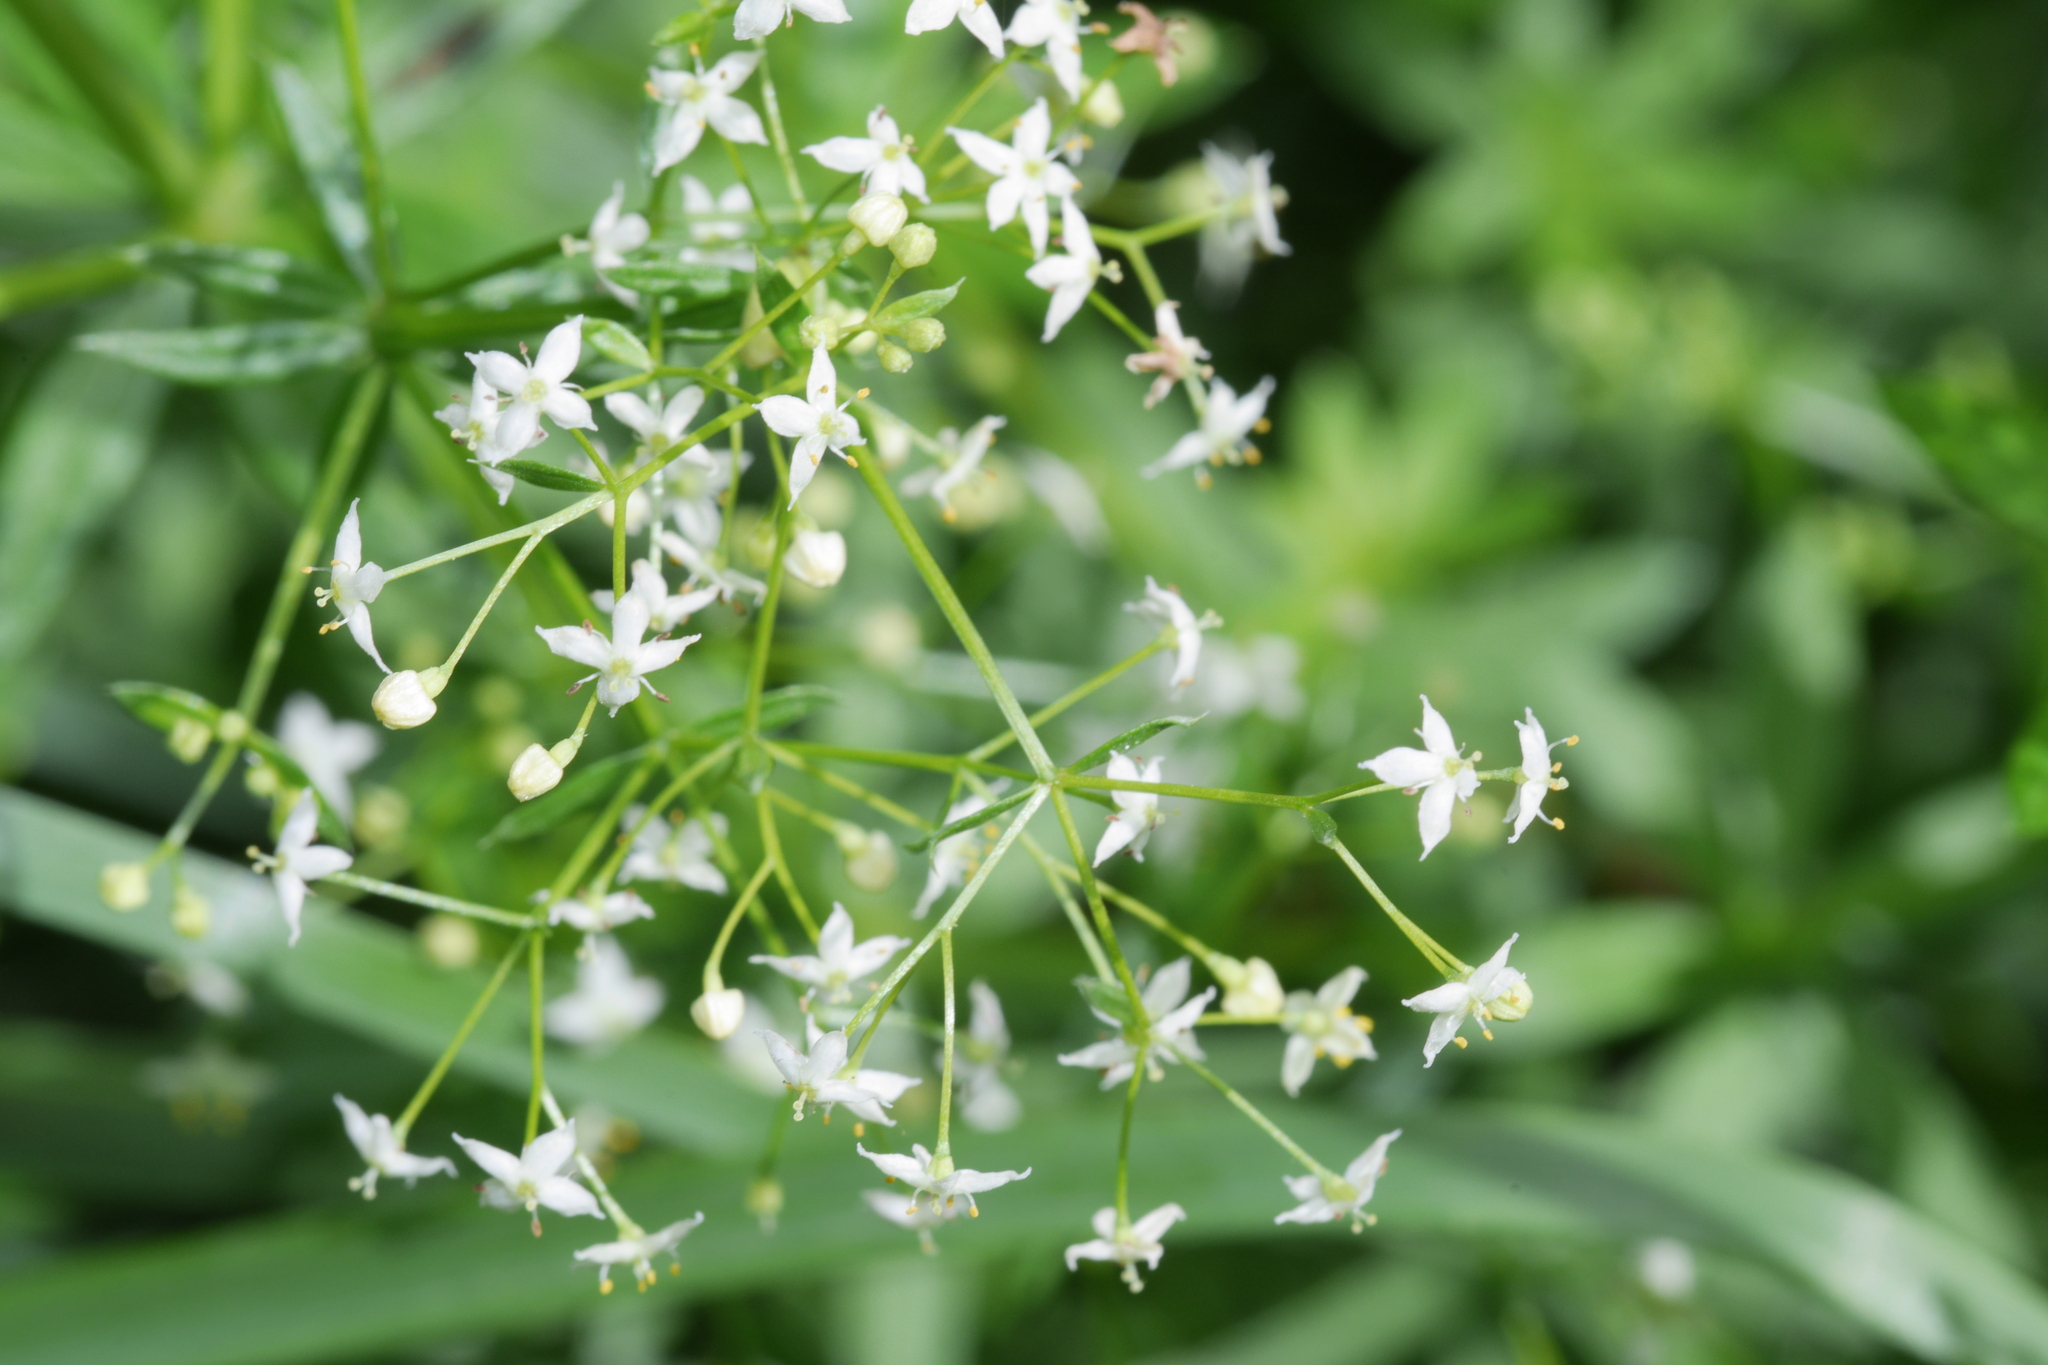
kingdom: Plantae
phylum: Tracheophyta
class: Magnoliopsida
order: Gentianales
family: Rubiaceae
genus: Galium
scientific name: Galium album
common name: White bedstraw
